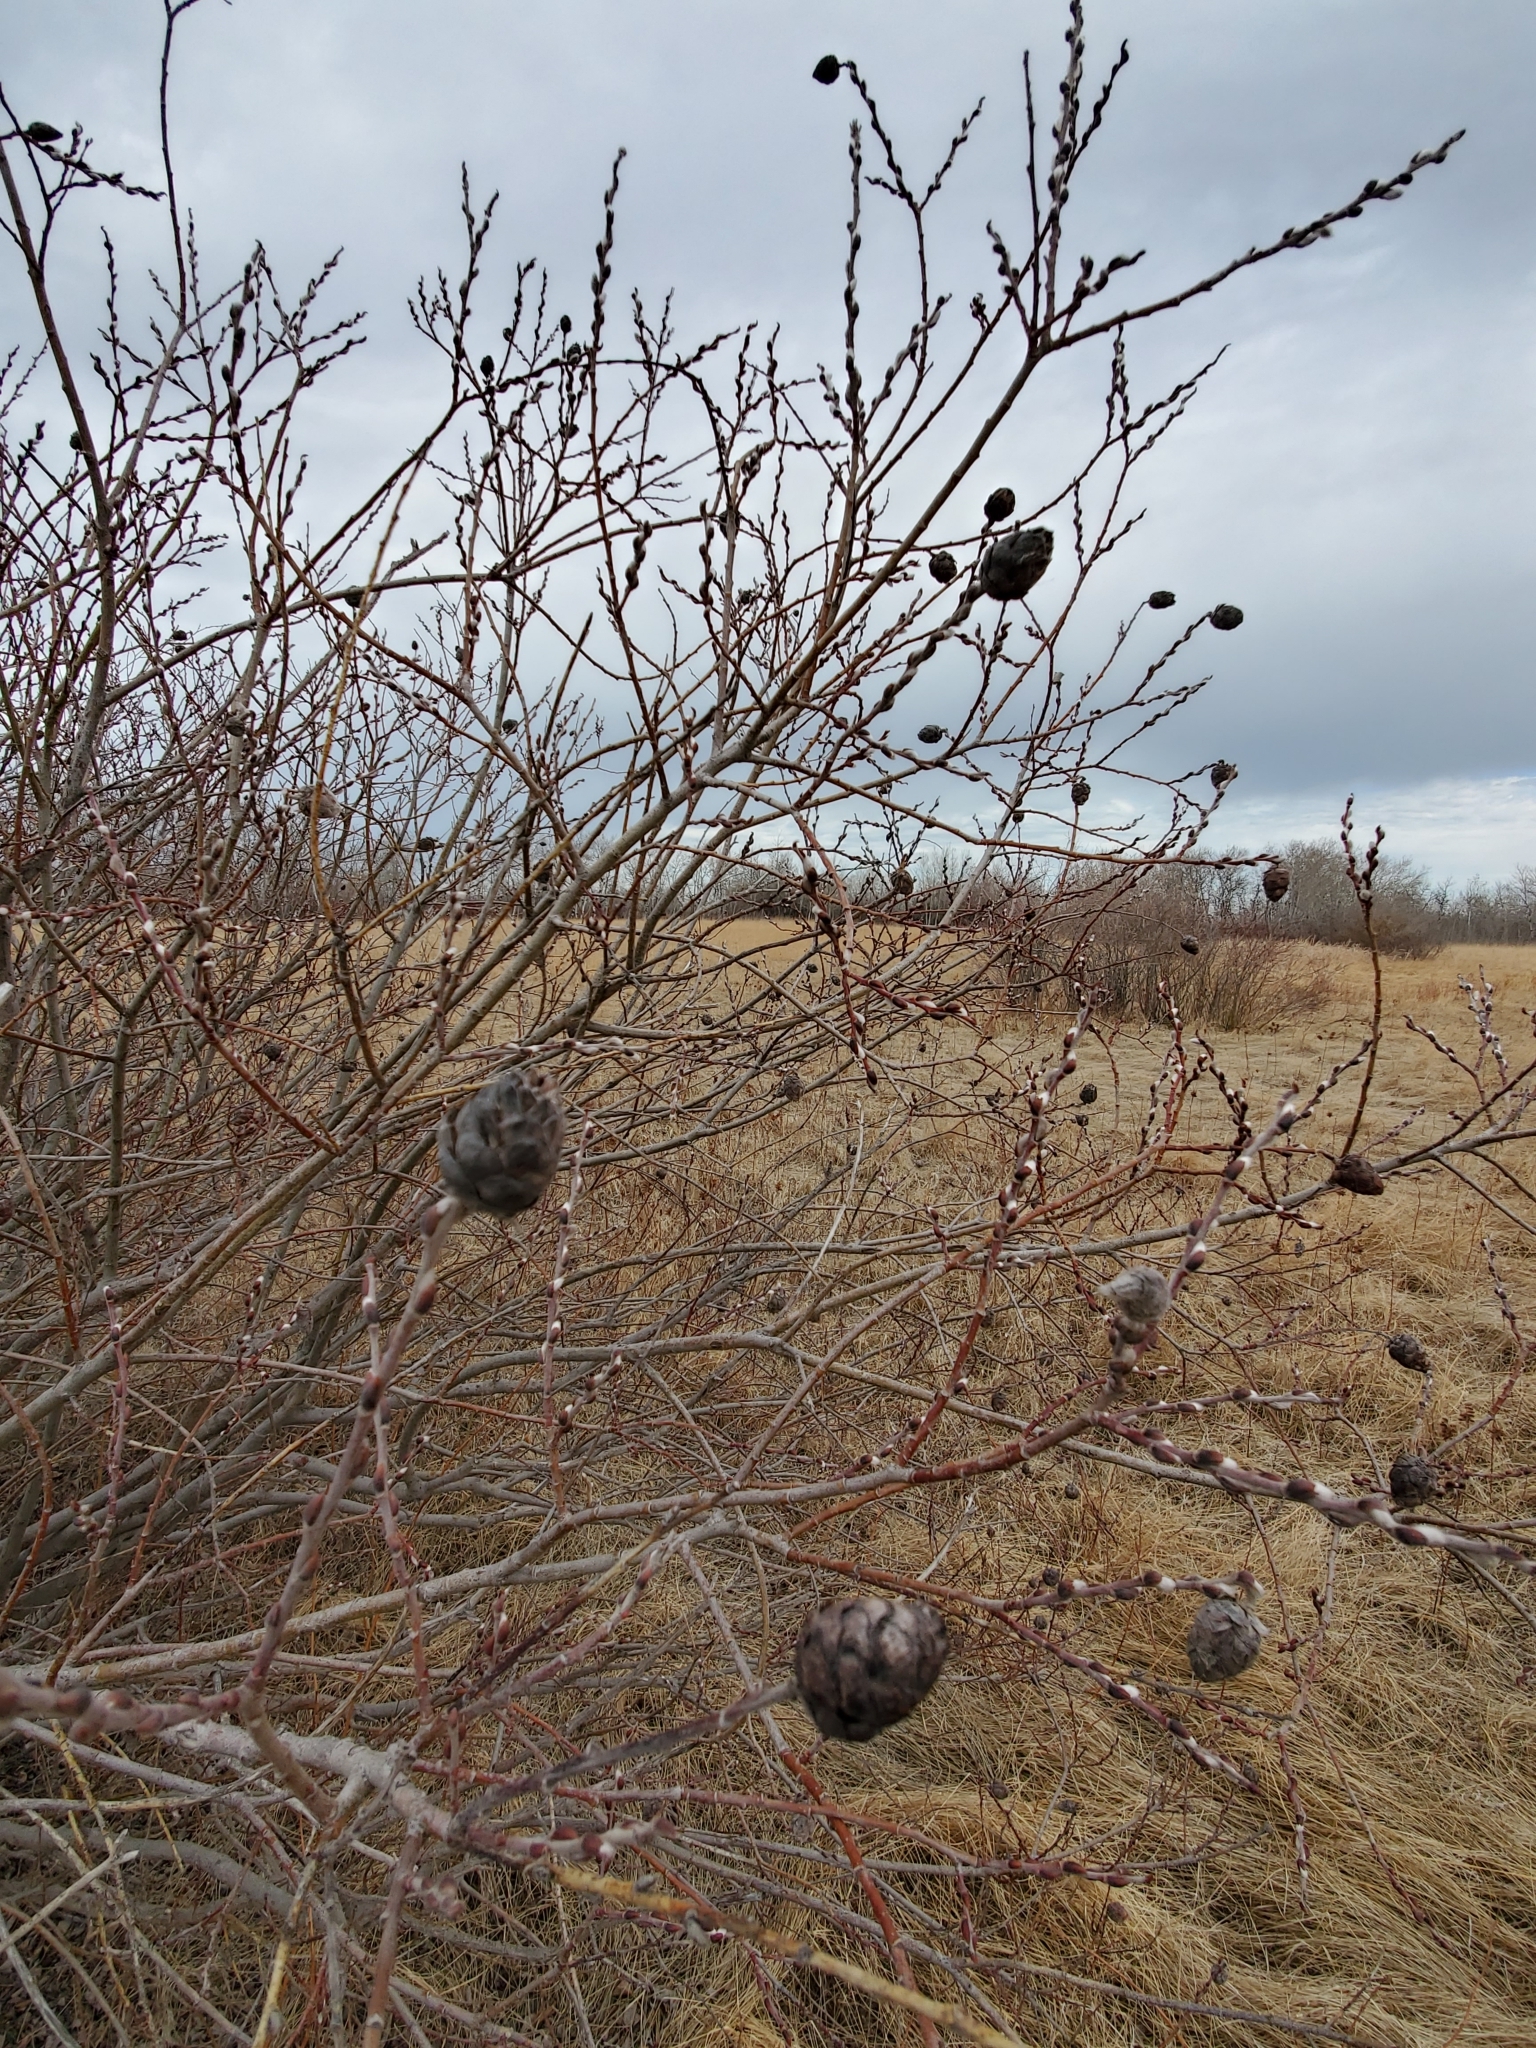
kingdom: Animalia
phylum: Arthropoda
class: Insecta
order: Diptera
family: Cecidomyiidae
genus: Rabdophaga
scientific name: Rabdophaga strobiloides
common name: Willow pinecone gall midge
